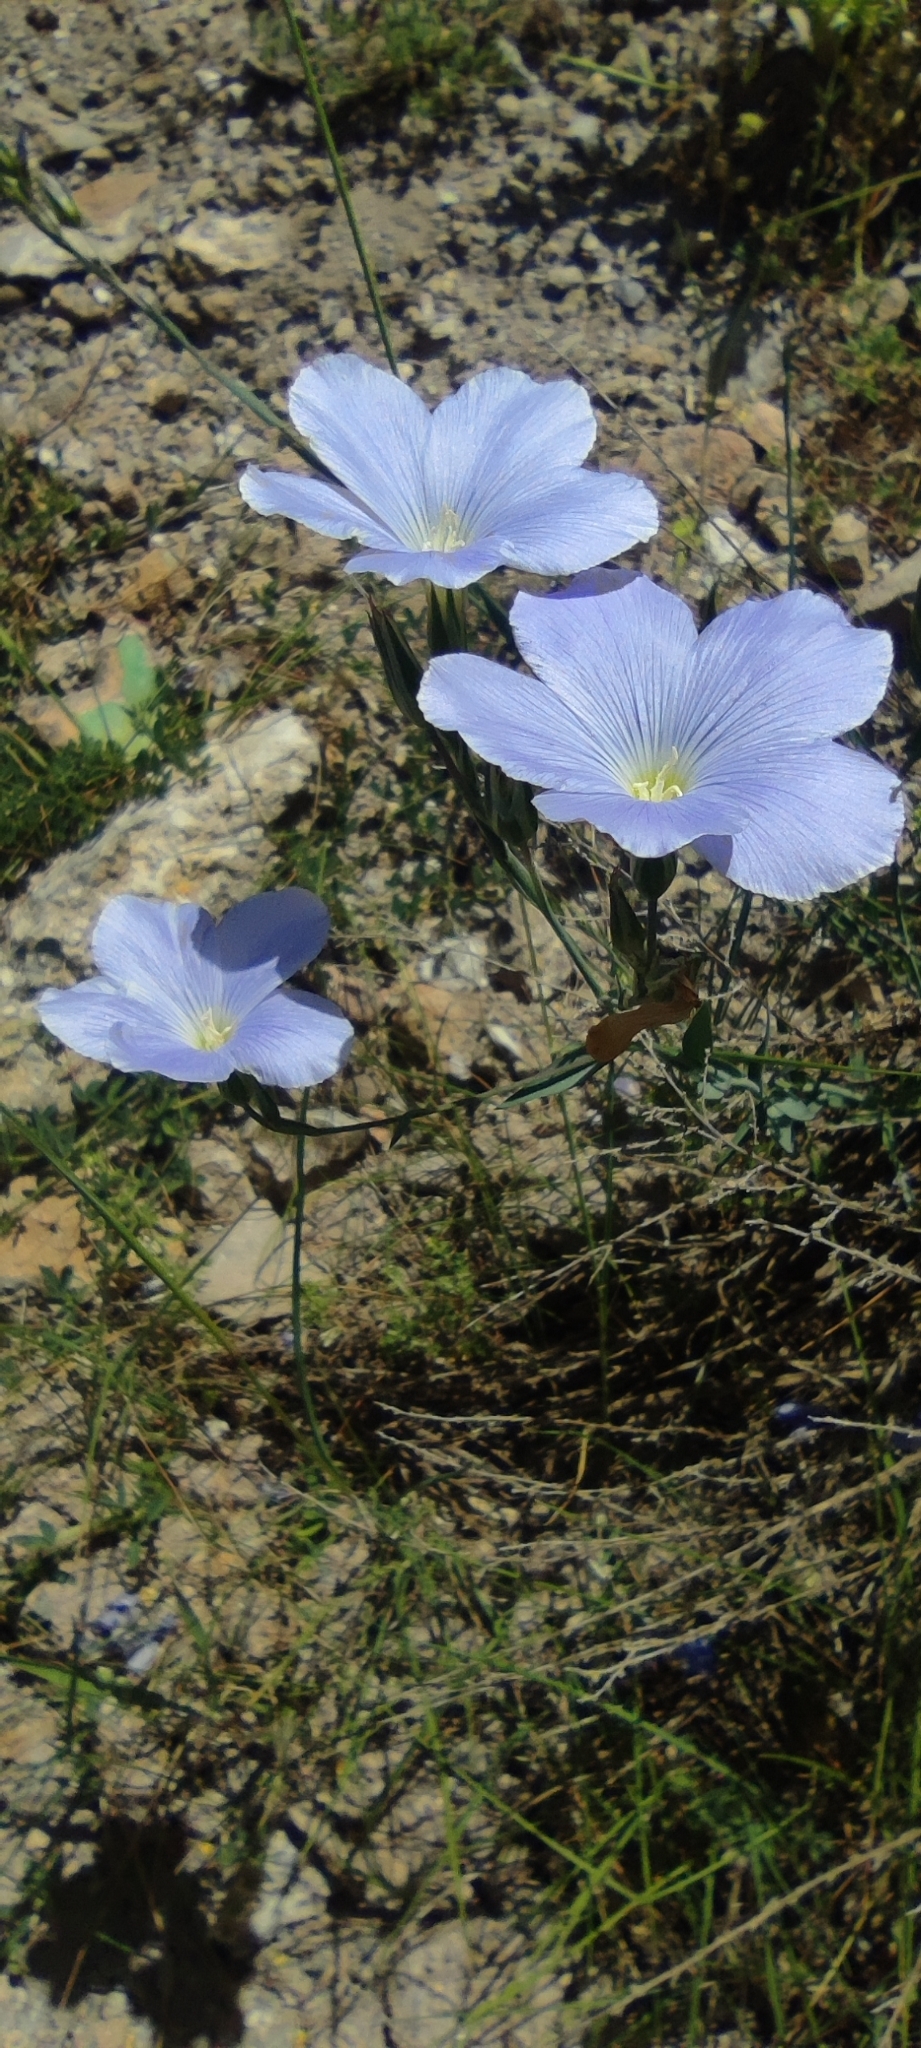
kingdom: Plantae
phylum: Tracheophyta
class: Magnoliopsida
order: Malpighiales
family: Linaceae
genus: Linum
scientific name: Linum narbonense
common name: Flax
